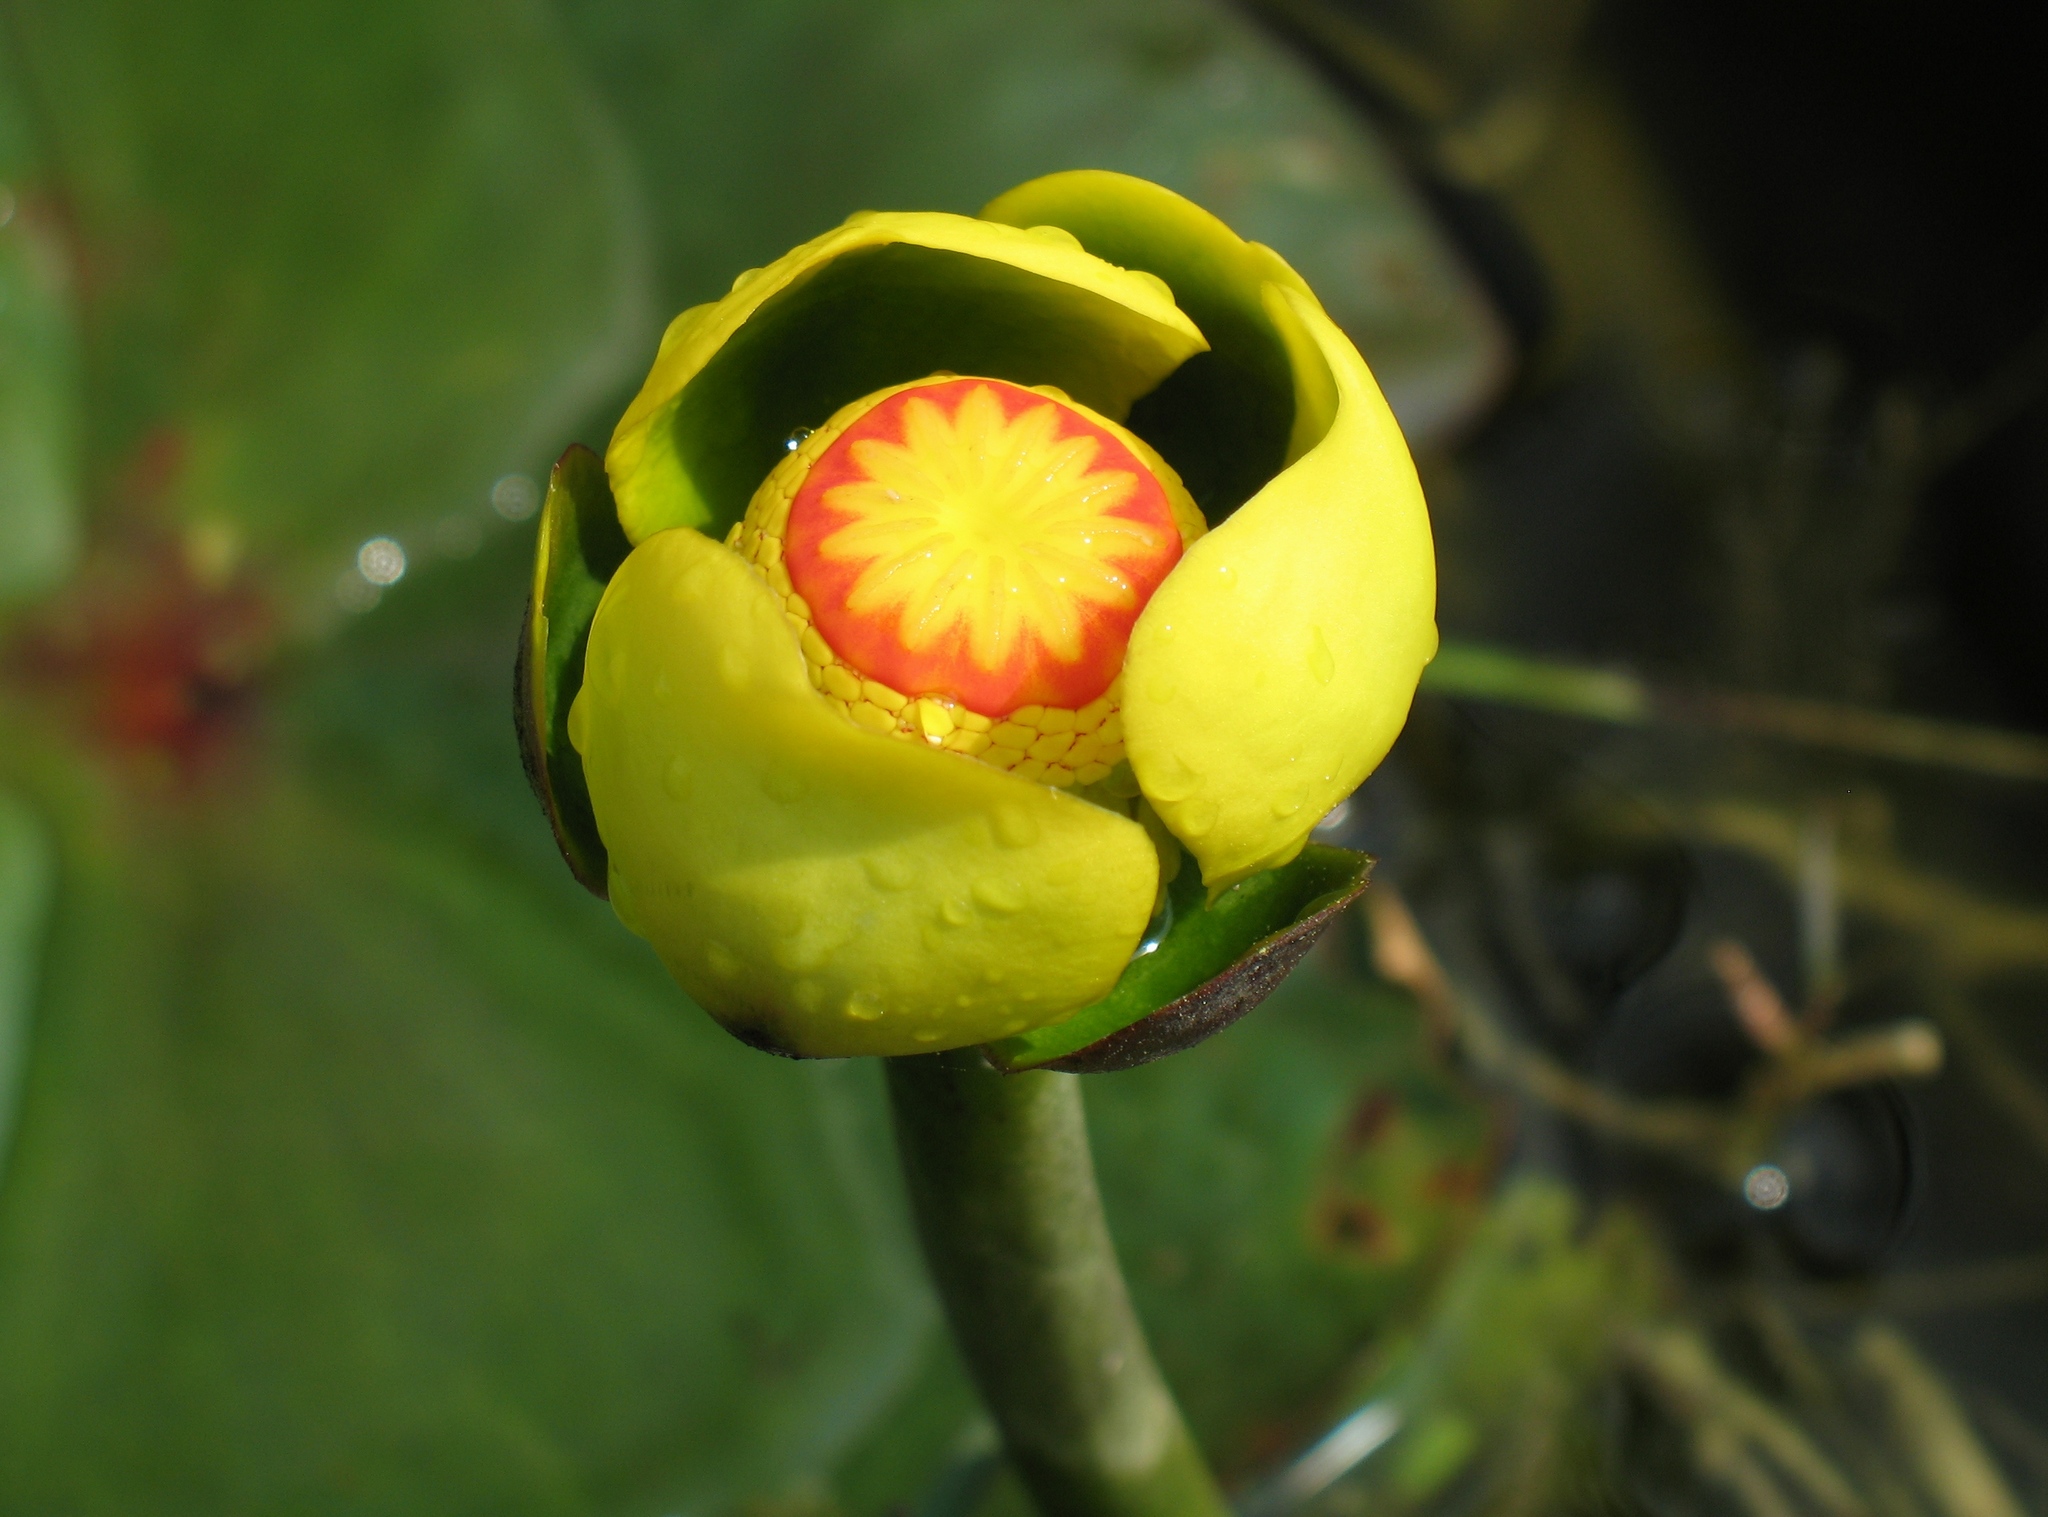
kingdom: Plantae
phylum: Tracheophyta
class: Magnoliopsida
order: Nymphaeales
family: Nymphaeaceae
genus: Nuphar
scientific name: Nuphar advena
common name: Spatter-dock
